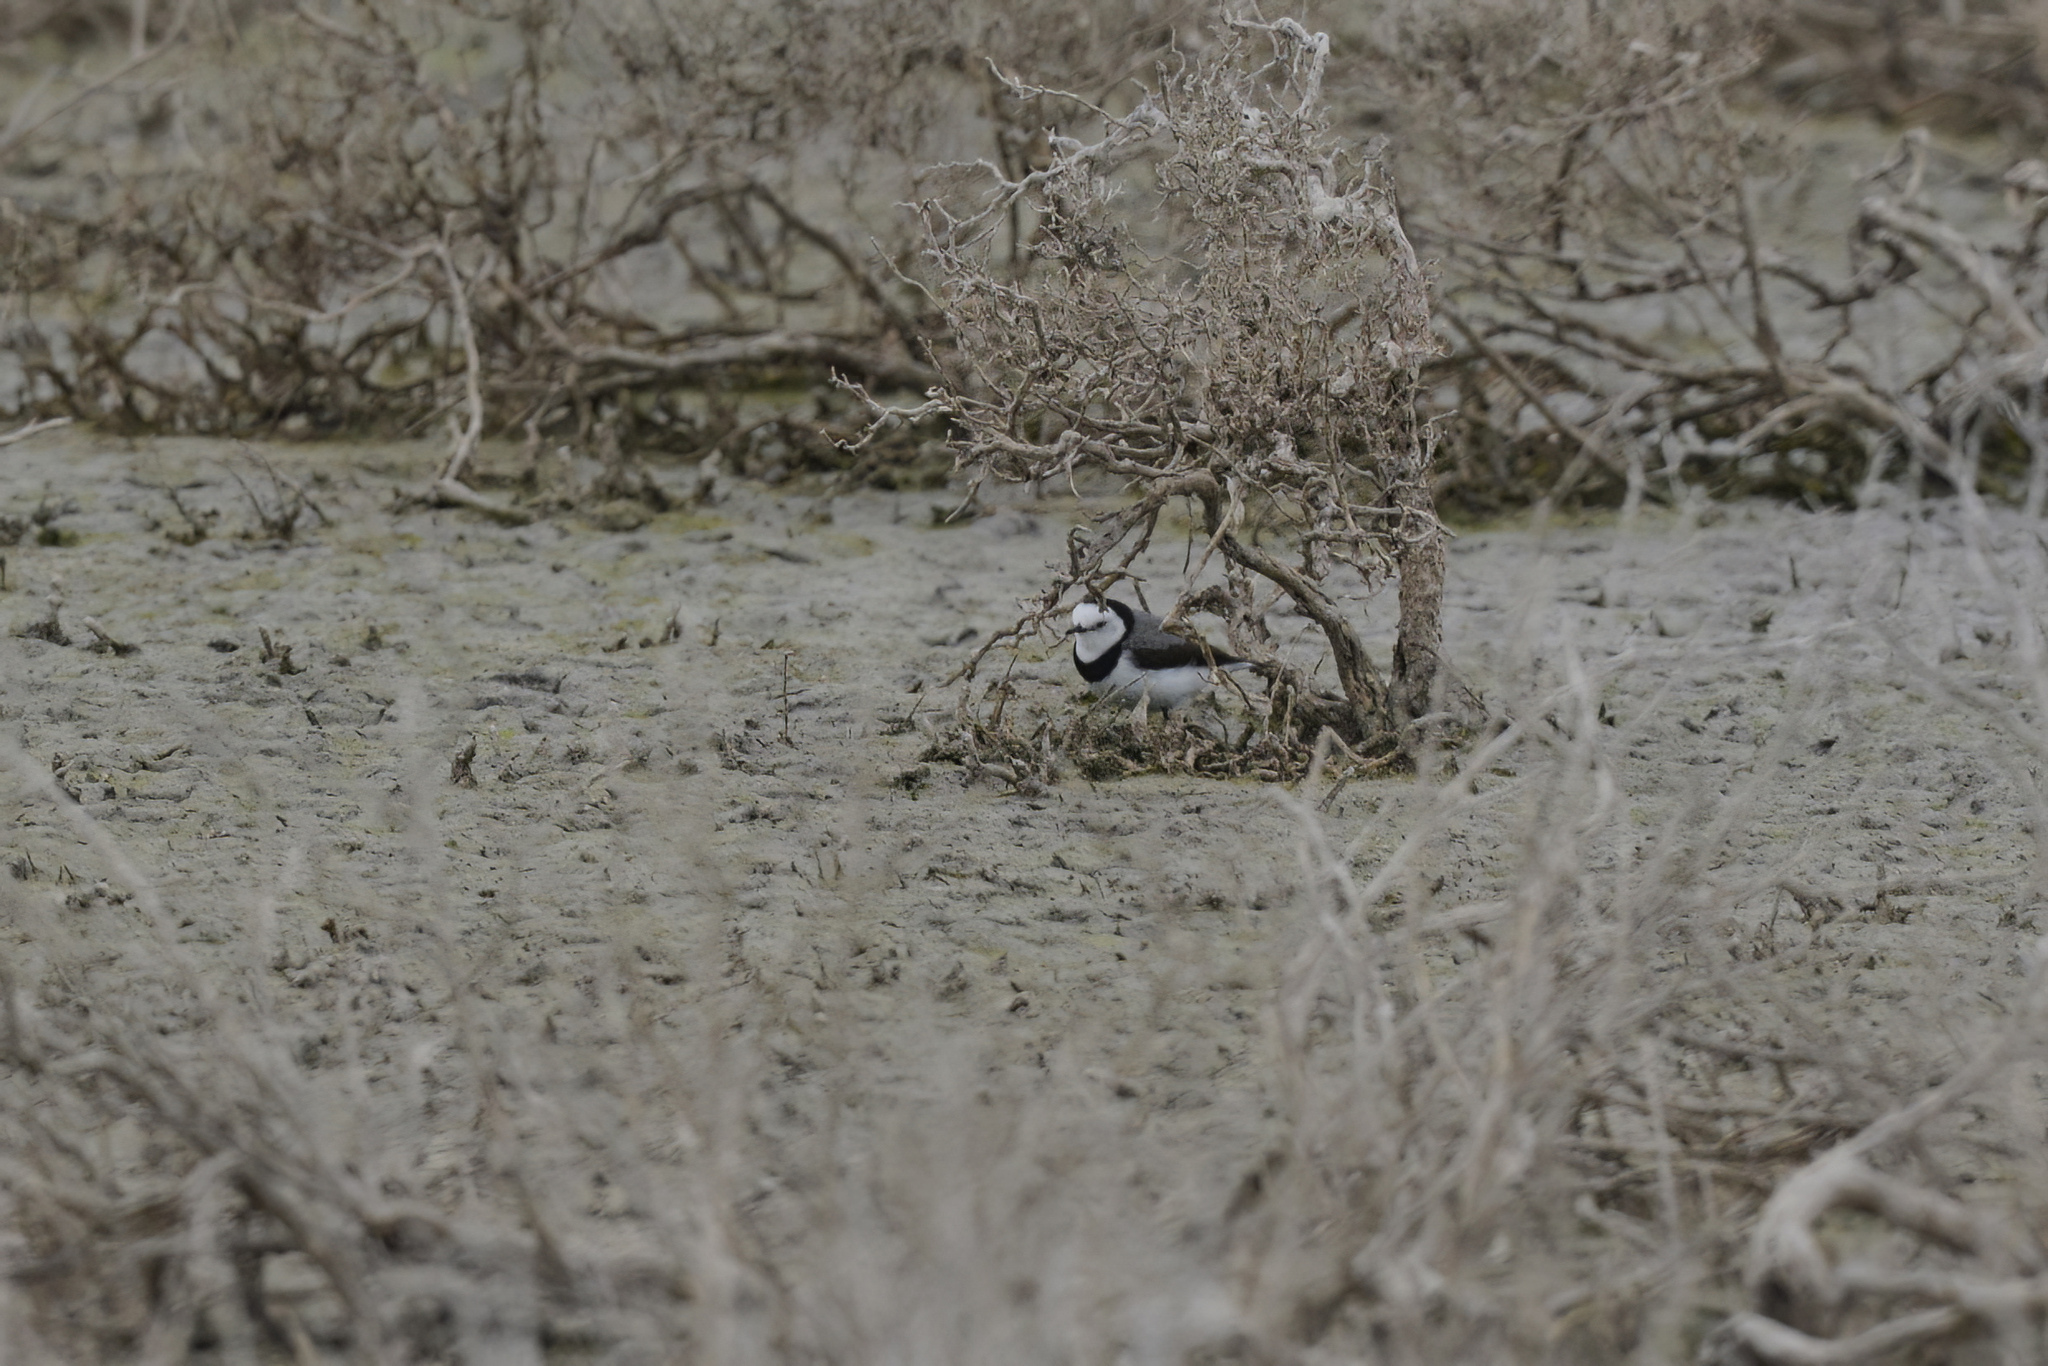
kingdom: Animalia
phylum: Chordata
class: Aves
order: Passeriformes
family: Meliphagidae
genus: Epthianura
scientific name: Epthianura albifrons
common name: White-fronted chat
